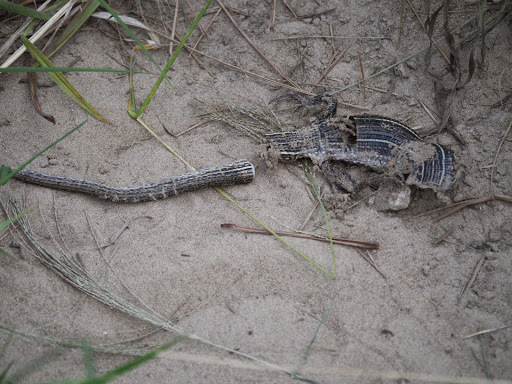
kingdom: Animalia
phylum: Chordata
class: Squamata
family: Gerrhosauridae
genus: Gerrhosaurus
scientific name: Gerrhosaurus nigrolineatus
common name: Black-lined plated lizard
